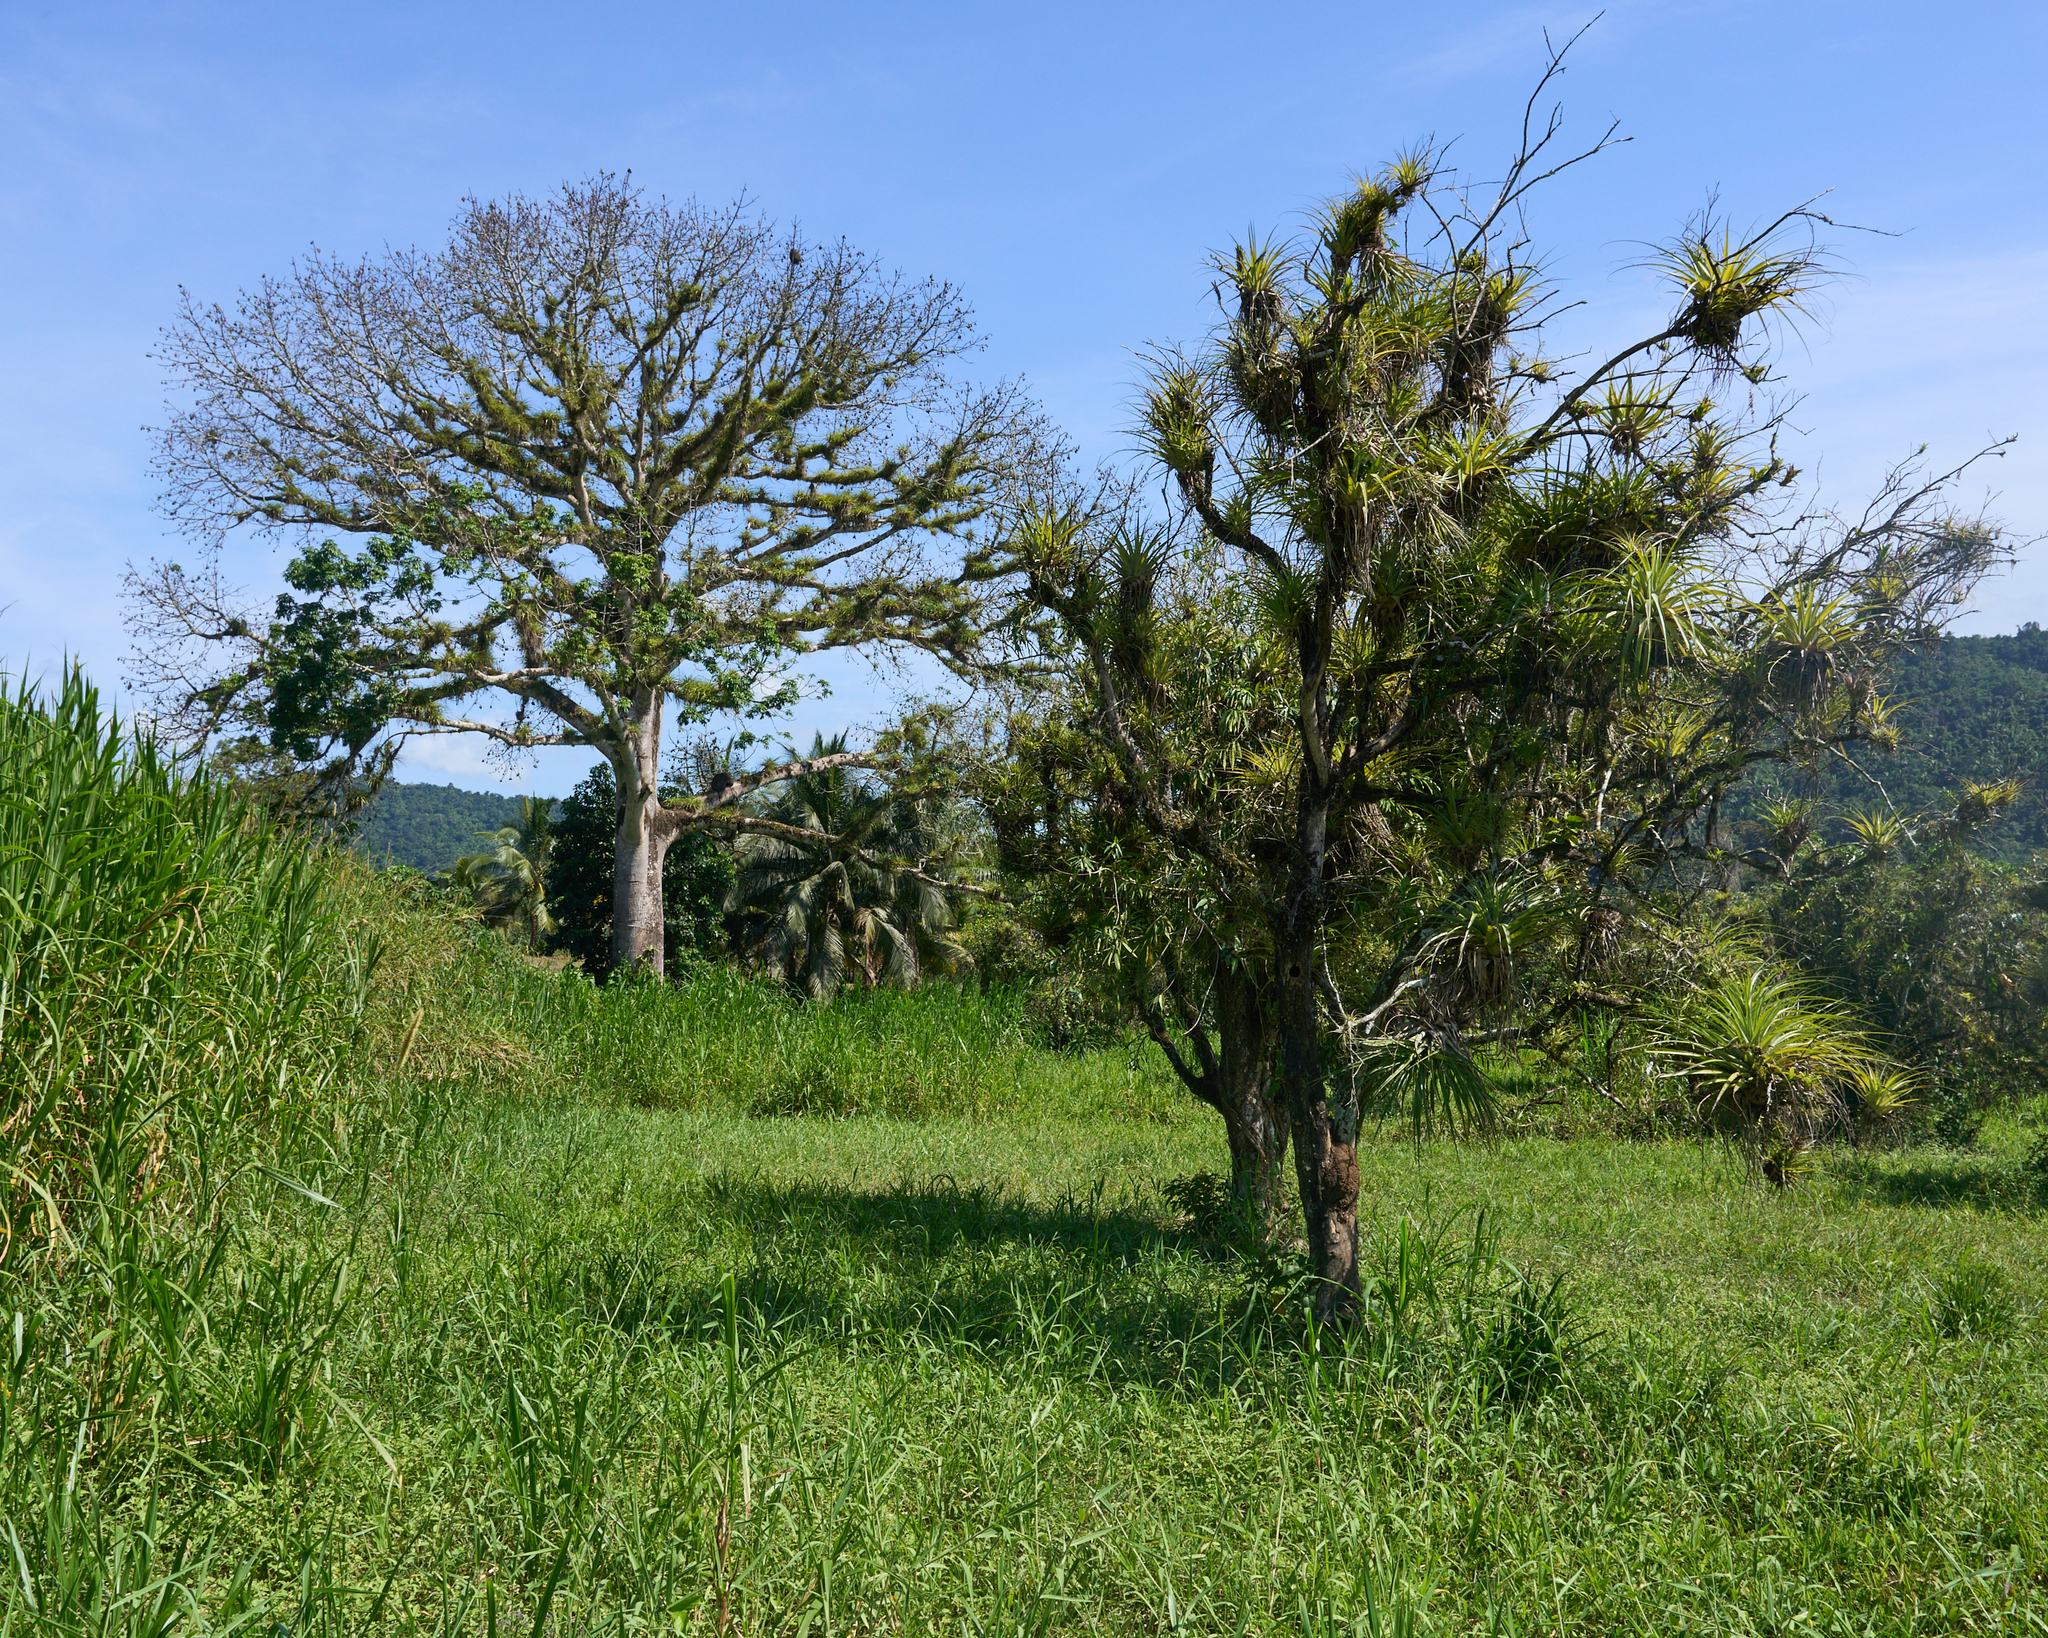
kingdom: Plantae
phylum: Tracheophyta
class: Magnoliopsida
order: Malvales
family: Malvaceae
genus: Ceiba
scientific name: Ceiba pentandra
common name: Kapok
